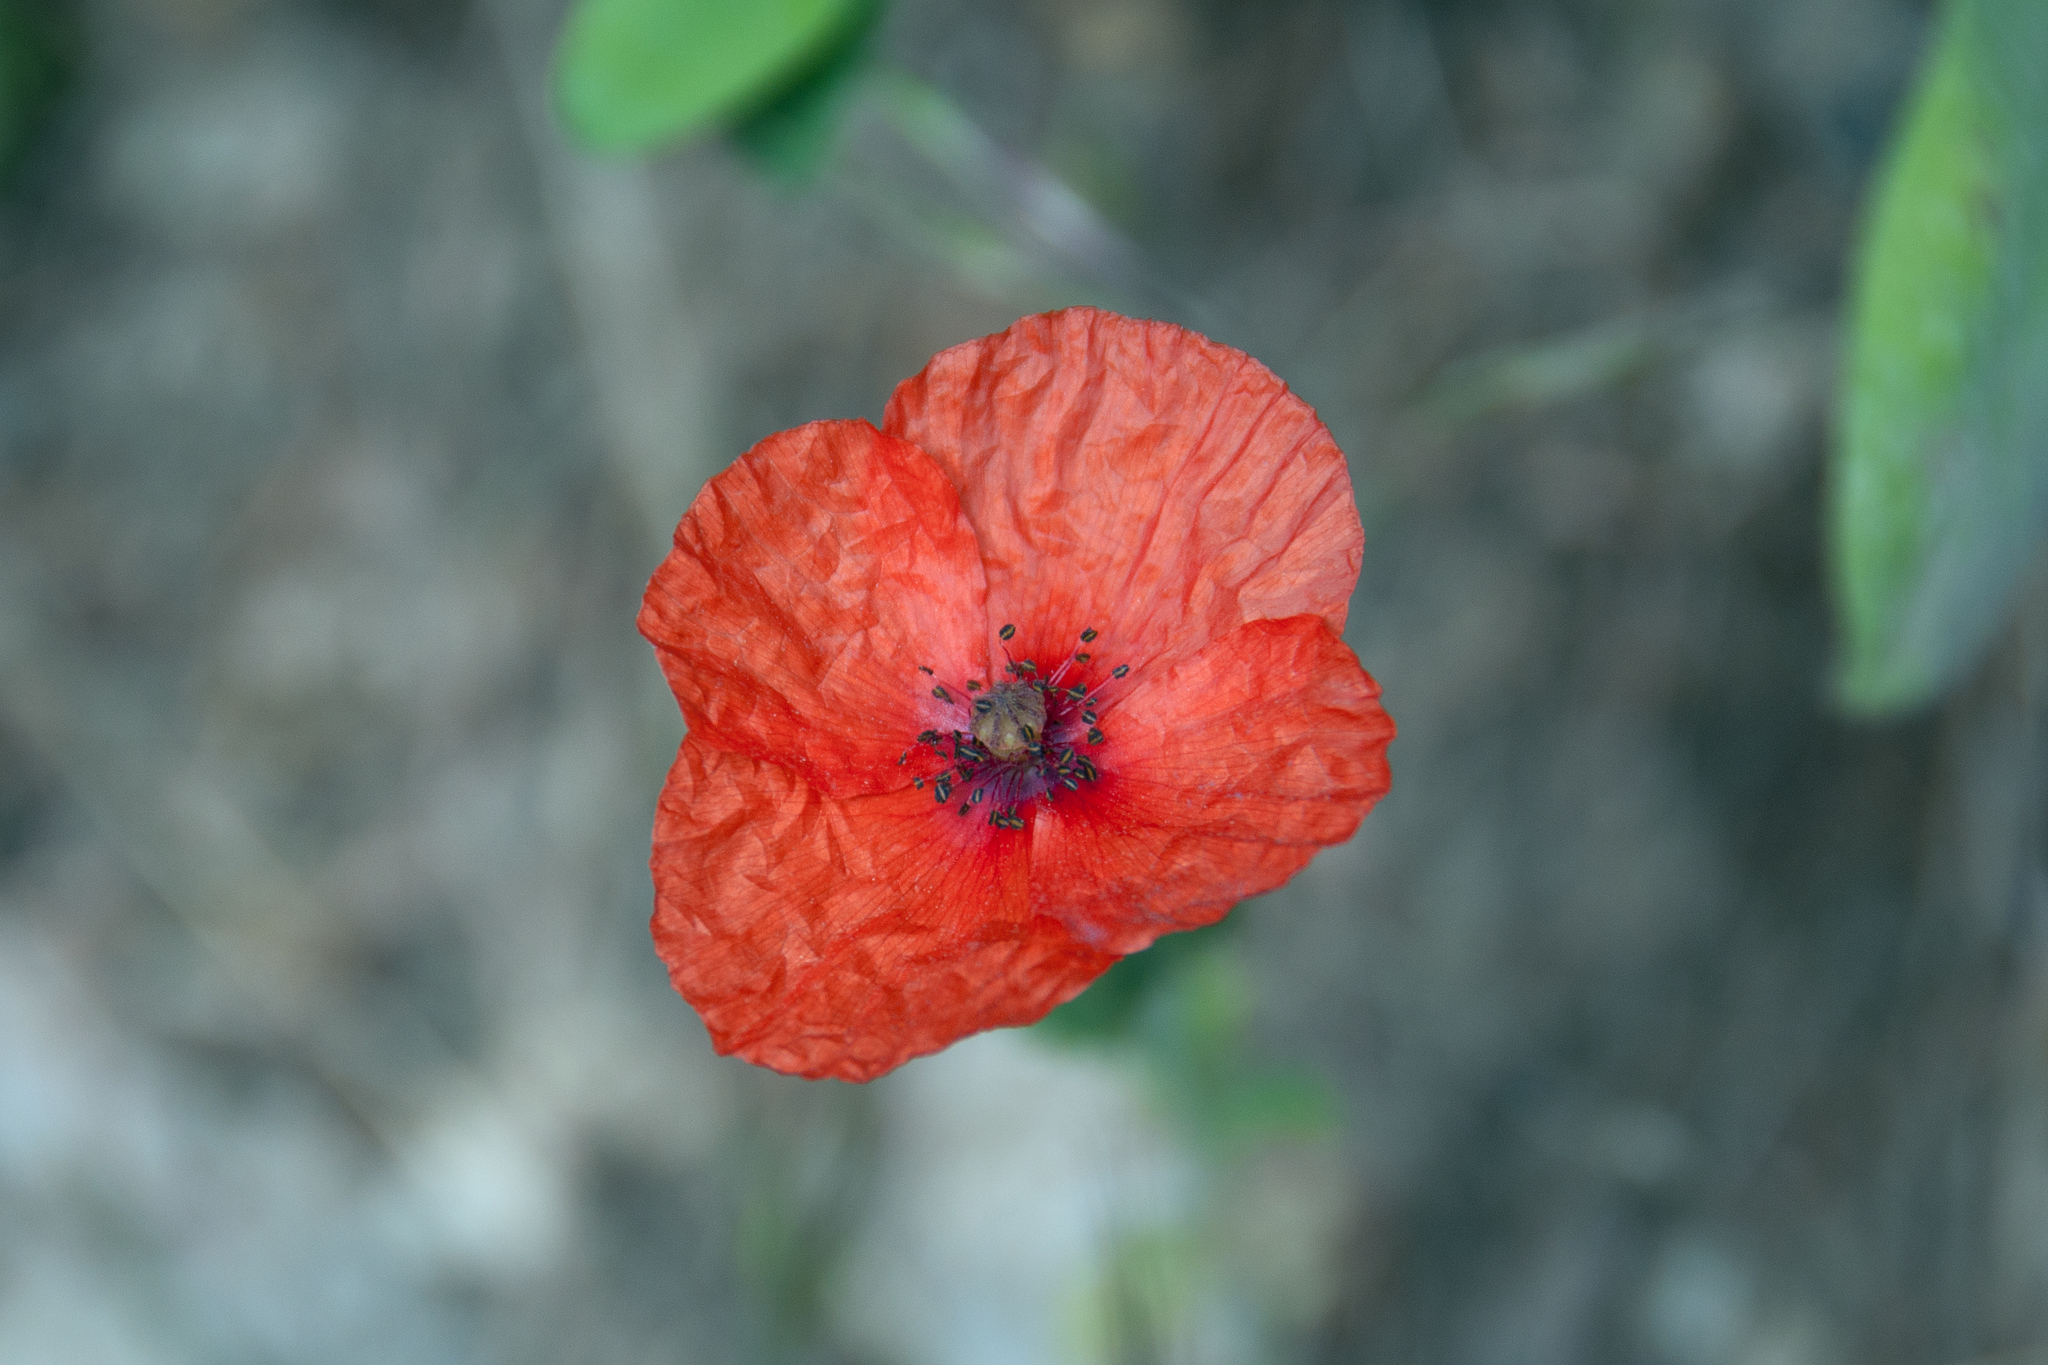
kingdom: Plantae
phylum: Tracheophyta
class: Magnoliopsida
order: Ranunculales
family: Papaveraceae
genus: Papaver
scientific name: Papaver dubium
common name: Long-headed poppy
